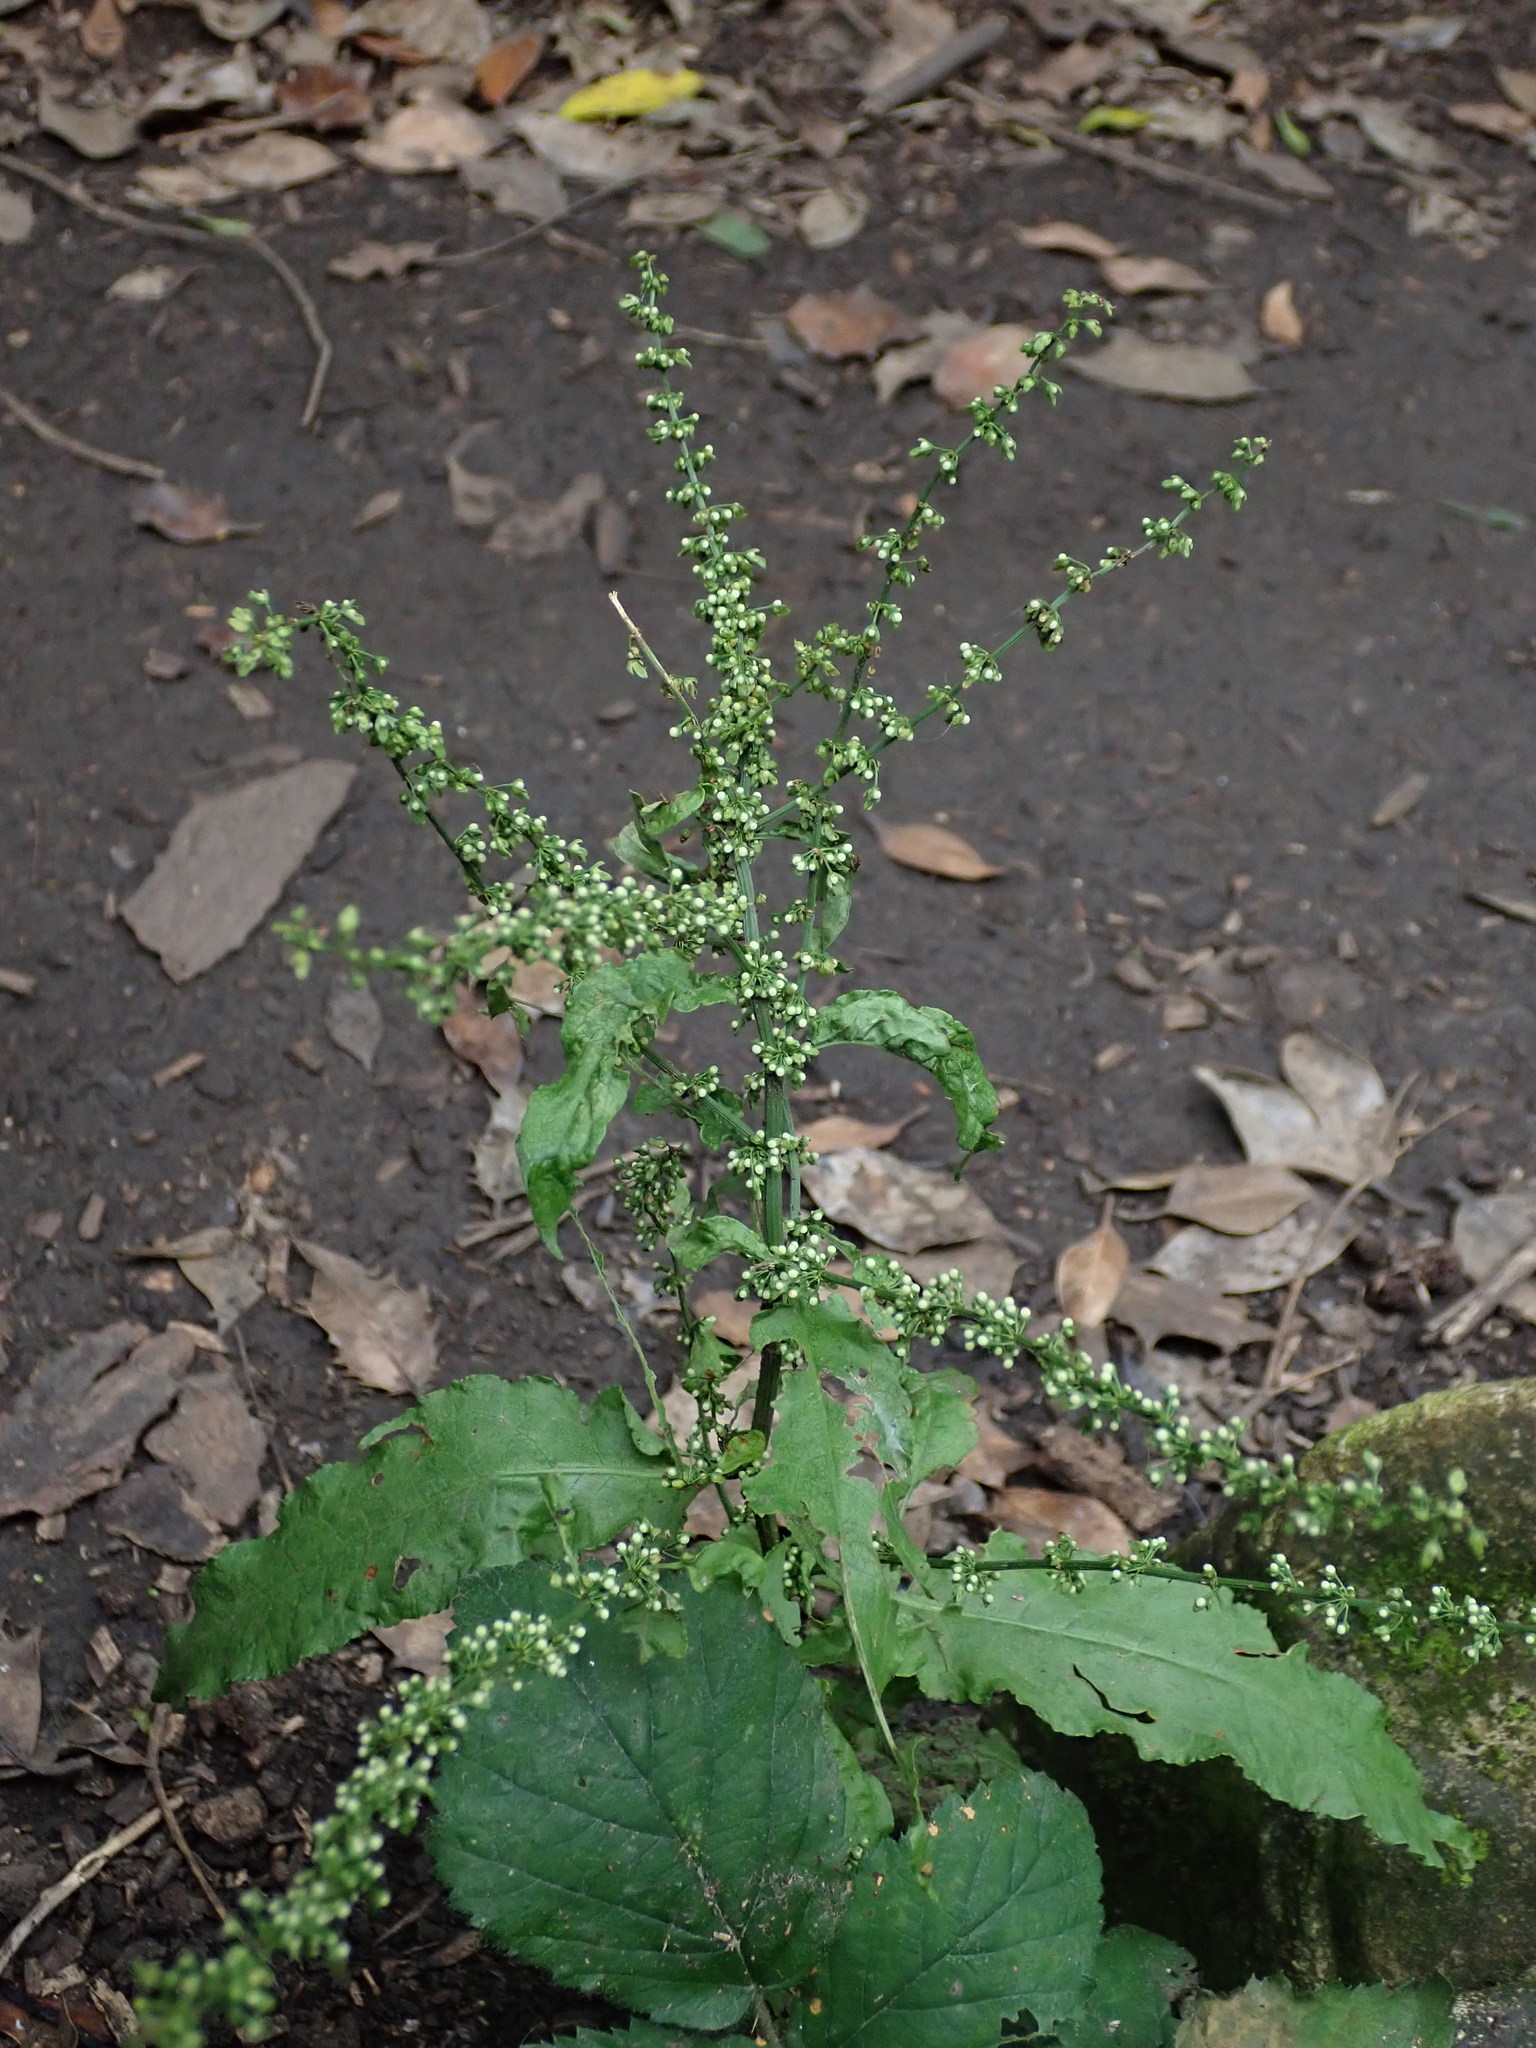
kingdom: Plantae
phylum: Tracheophyta
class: Magnoliopsida
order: Caryophyllales
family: Polygonaceae
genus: Rumex
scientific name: Rumex sanguineus
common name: Wood dock
